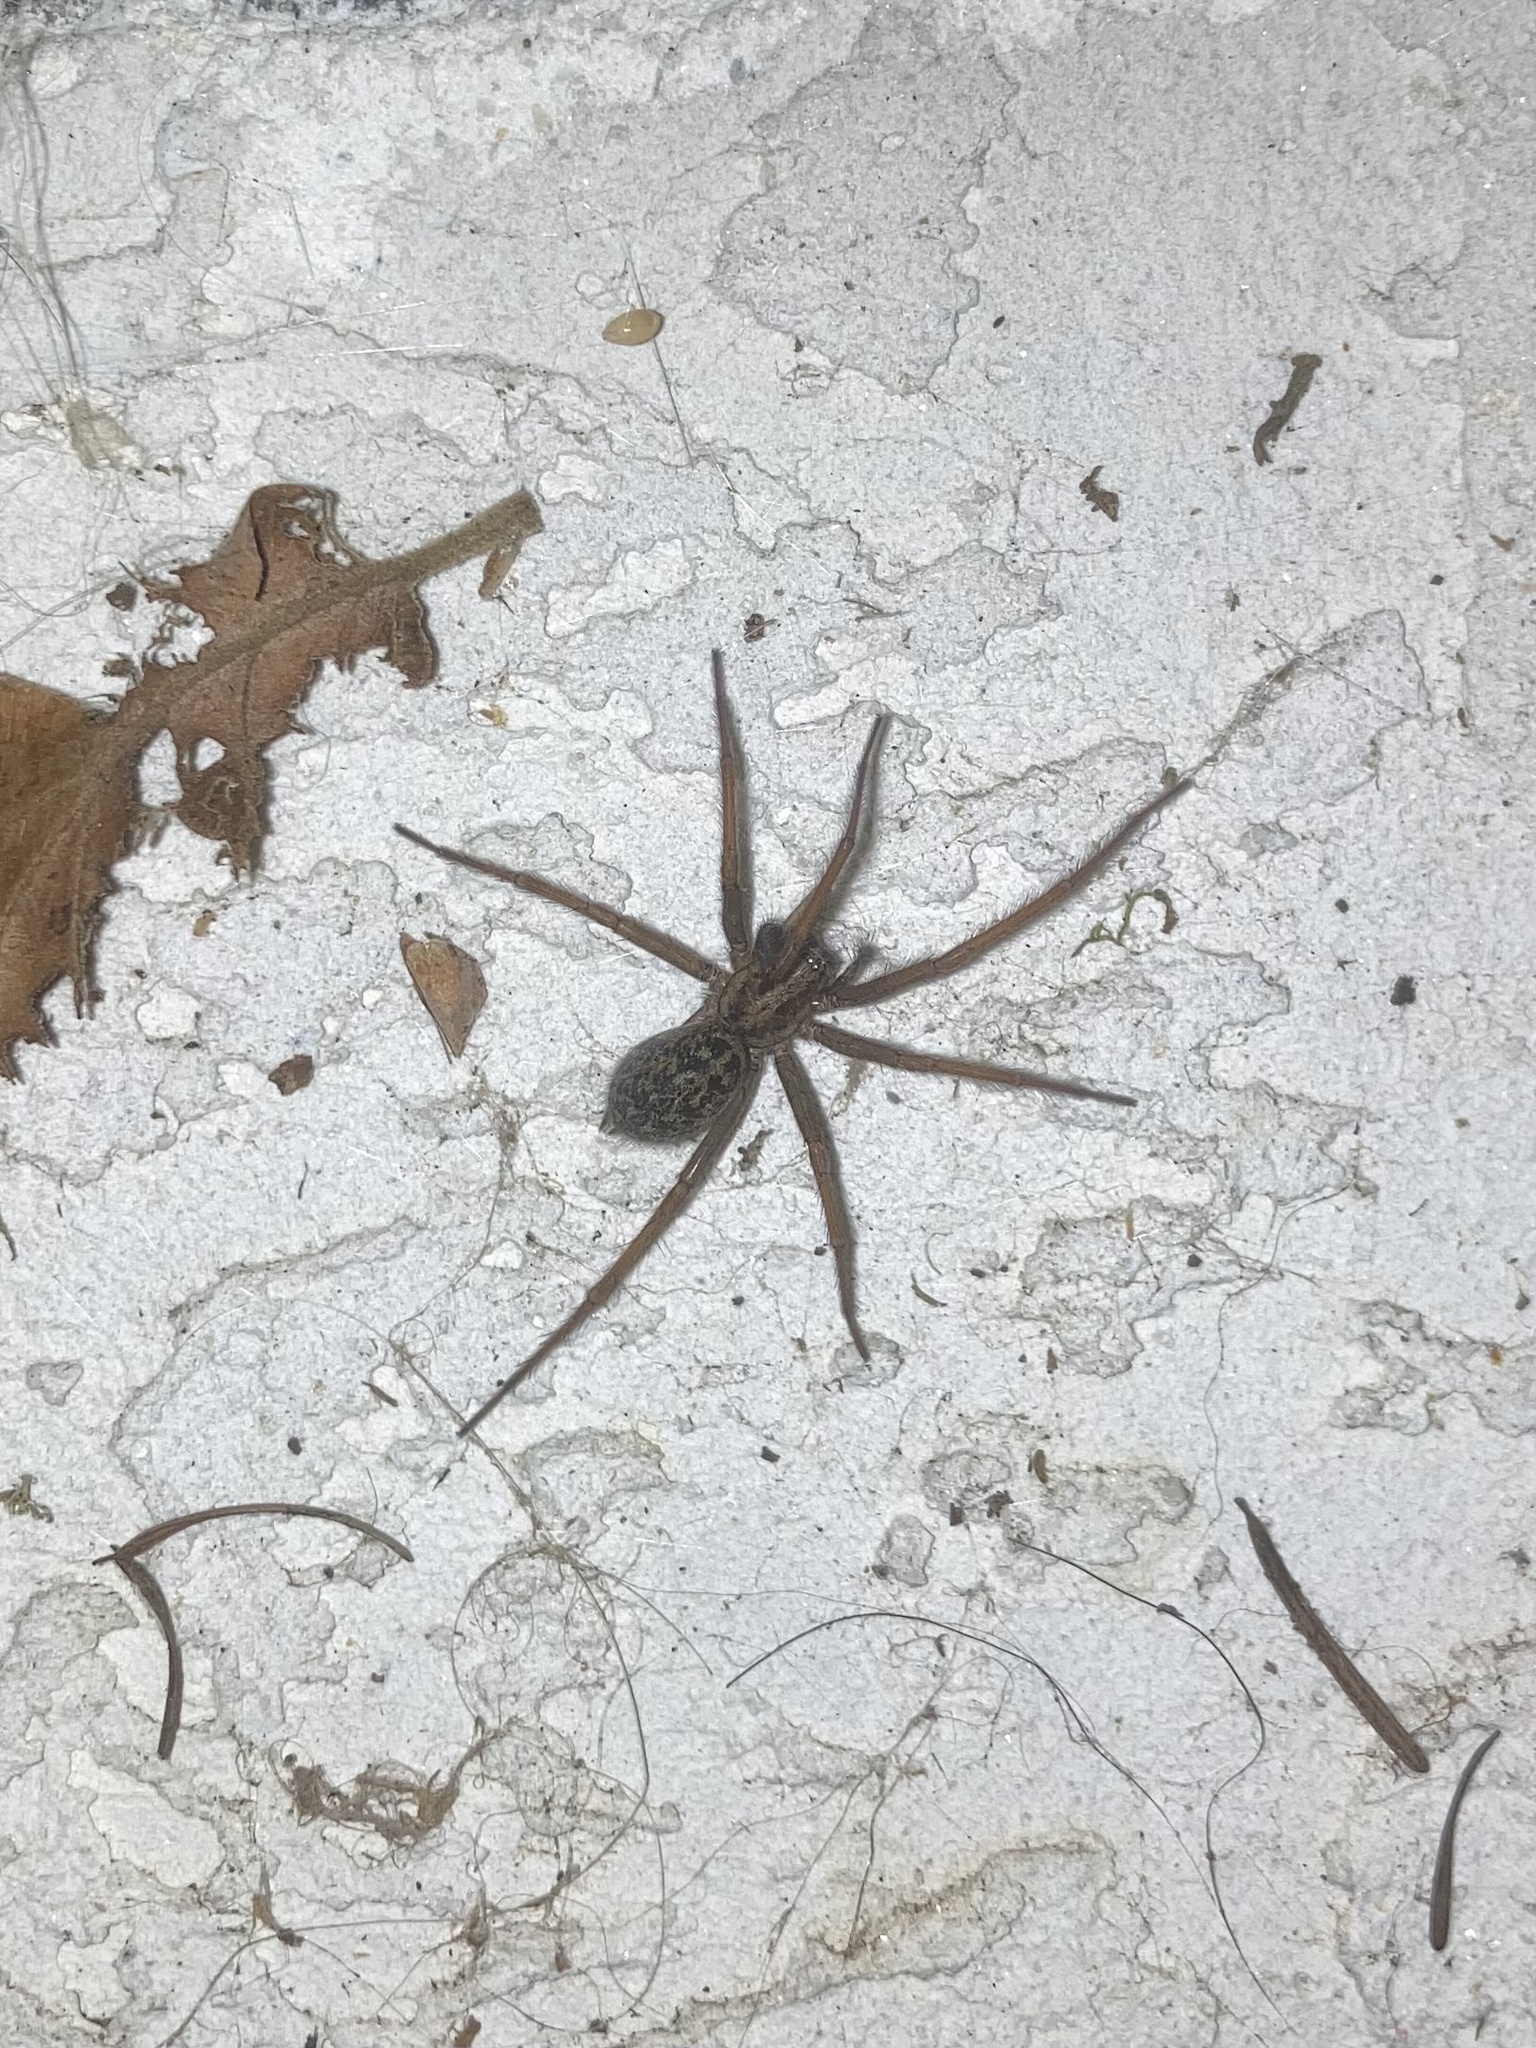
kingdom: Animalia
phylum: Arthropoda
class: Arachnida
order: Araneae
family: Agelenidae
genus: Eratigena
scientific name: Eratigena duellica
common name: Giant house spider
